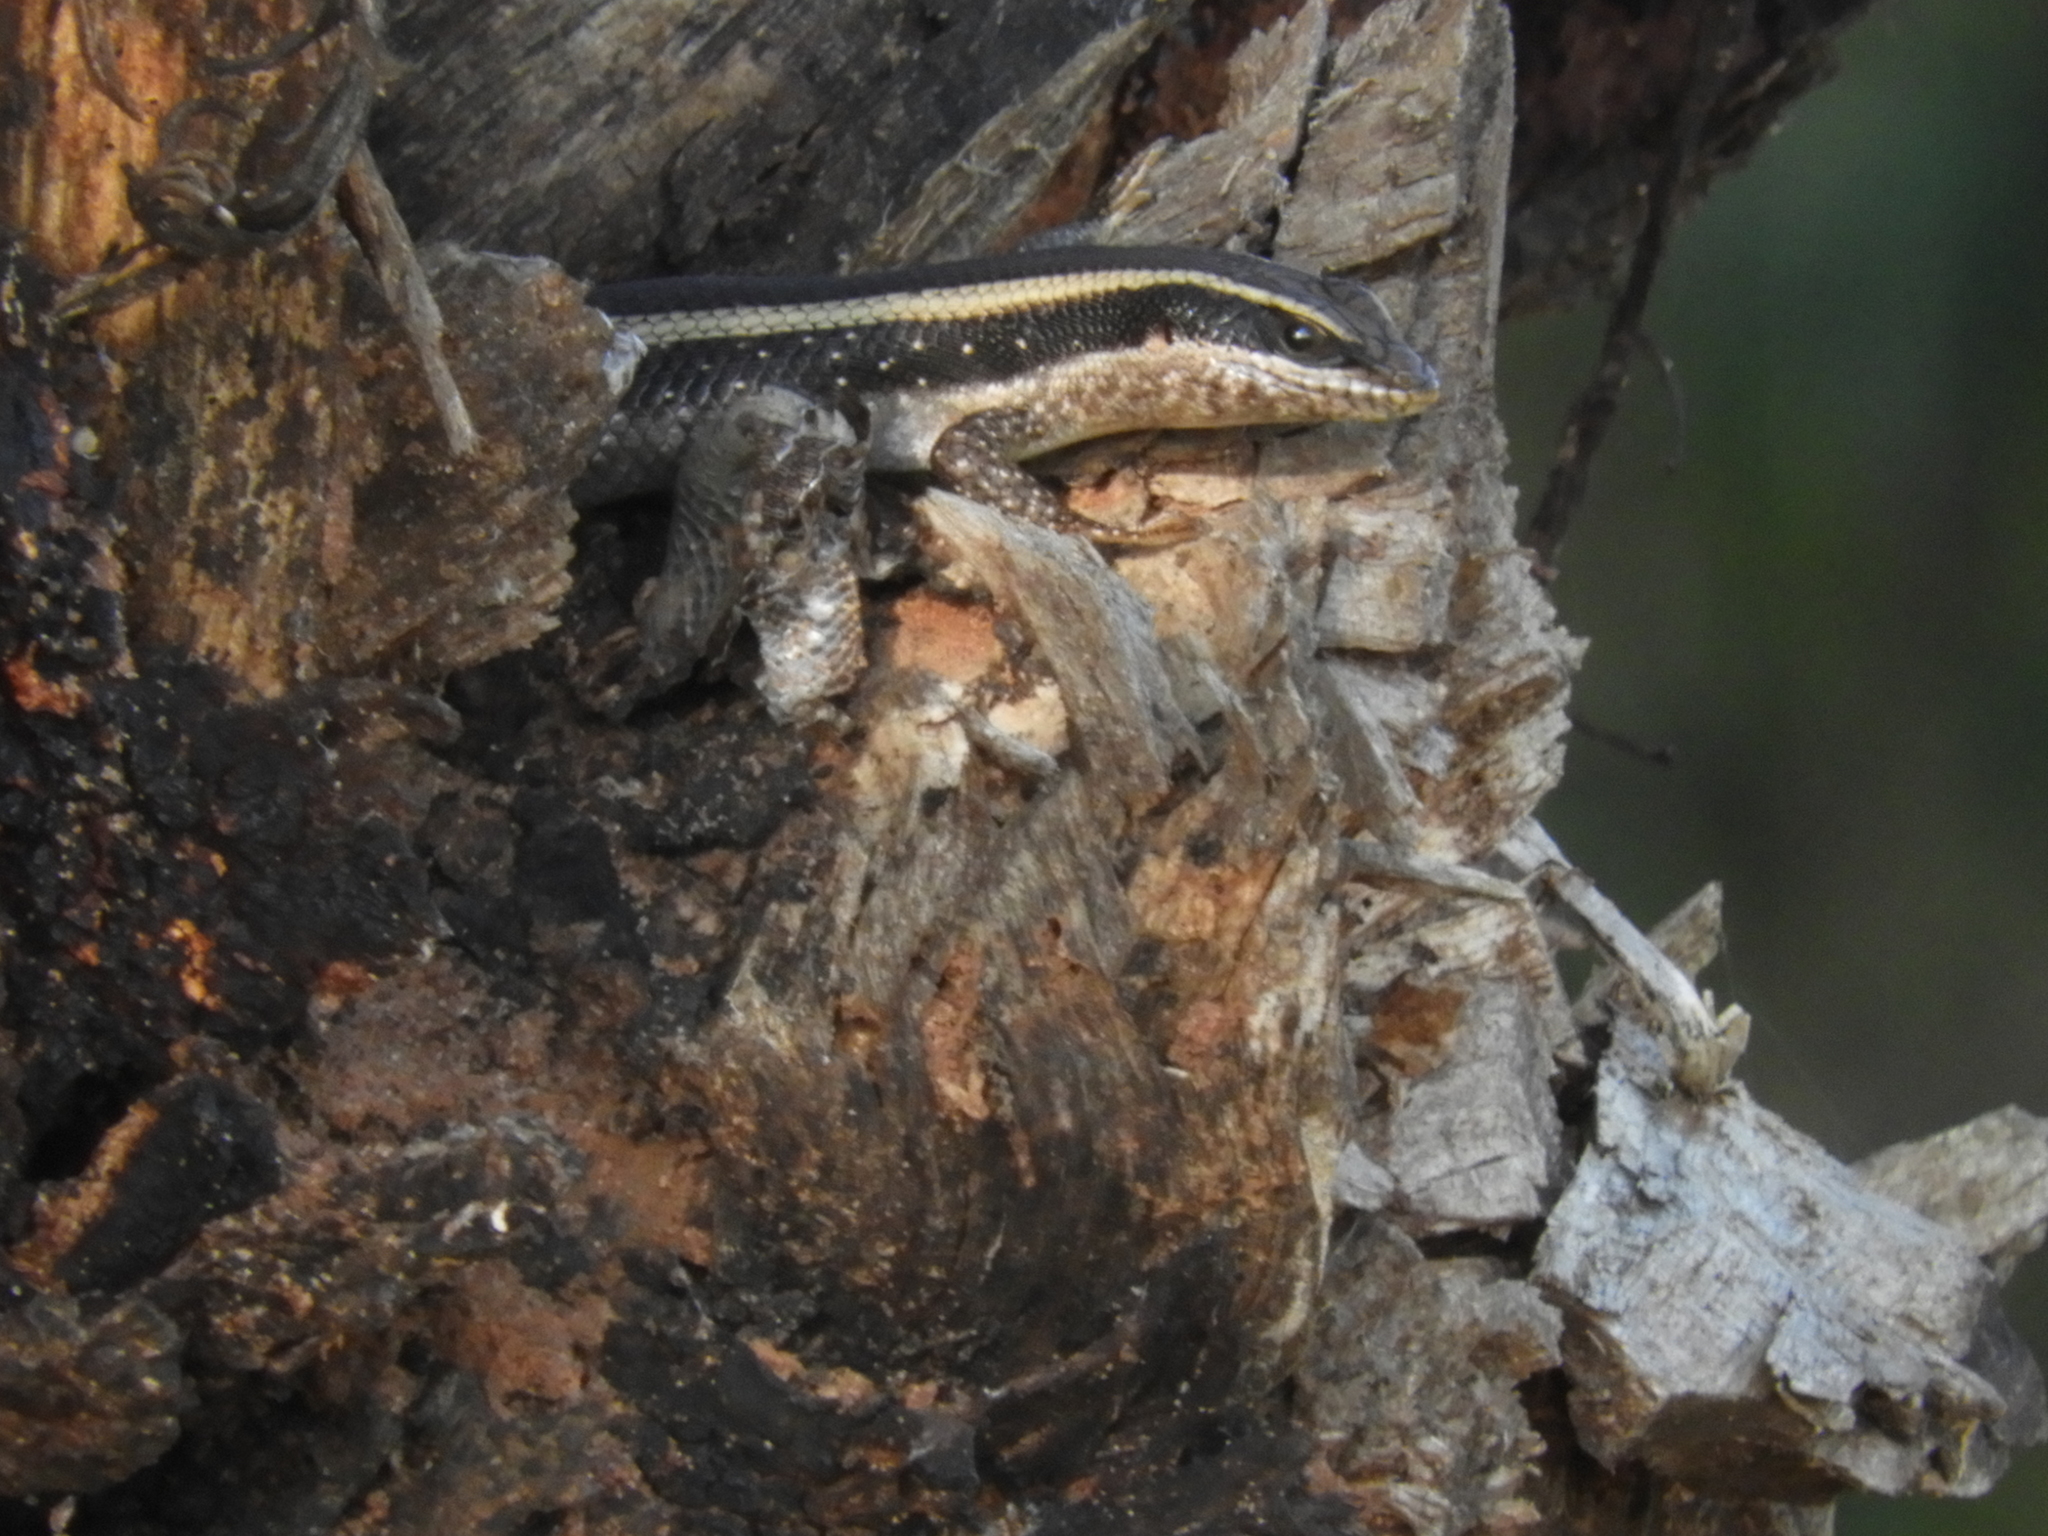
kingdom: Animalia
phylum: Chordata
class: Squamata
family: Scincidae
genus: Trachylepis
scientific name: Trachylepis striata
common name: African striped mabuya
